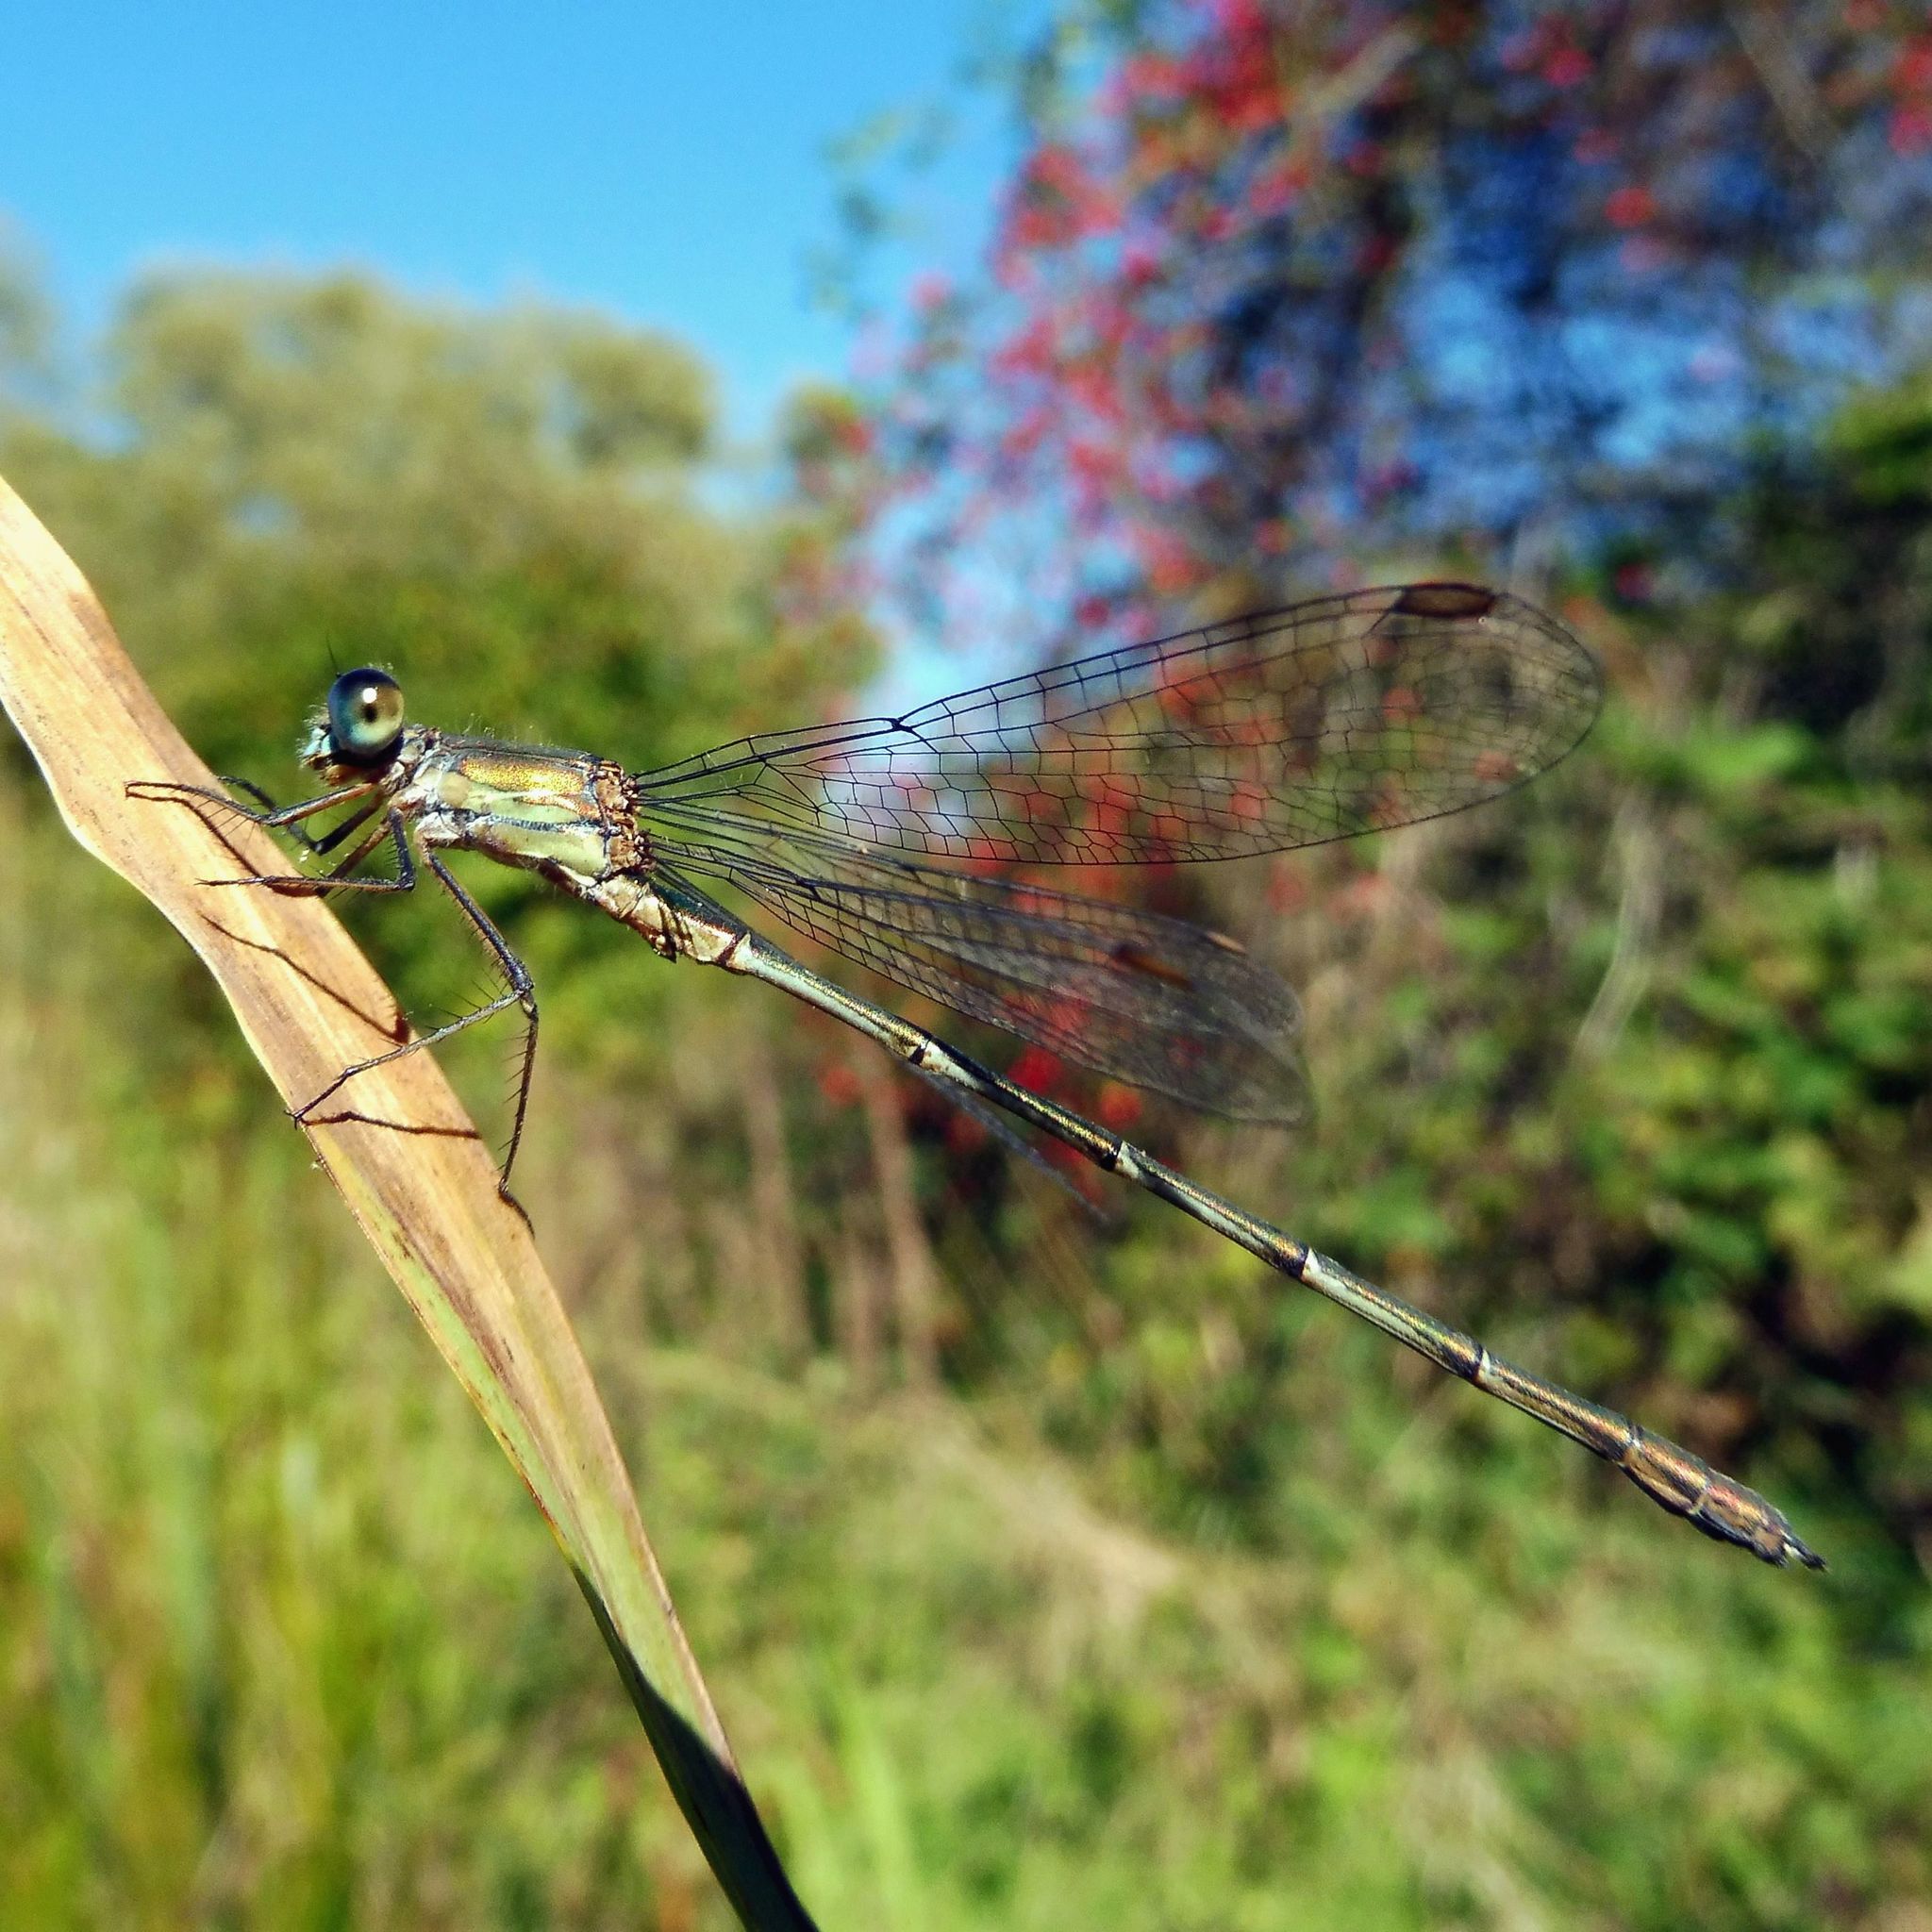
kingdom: Animalia
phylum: Arthropoda
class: Insecta
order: Odonata
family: Lestidae
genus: Chalcolestes
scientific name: Chalcolestes viridis
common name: Green emerald damselfly
